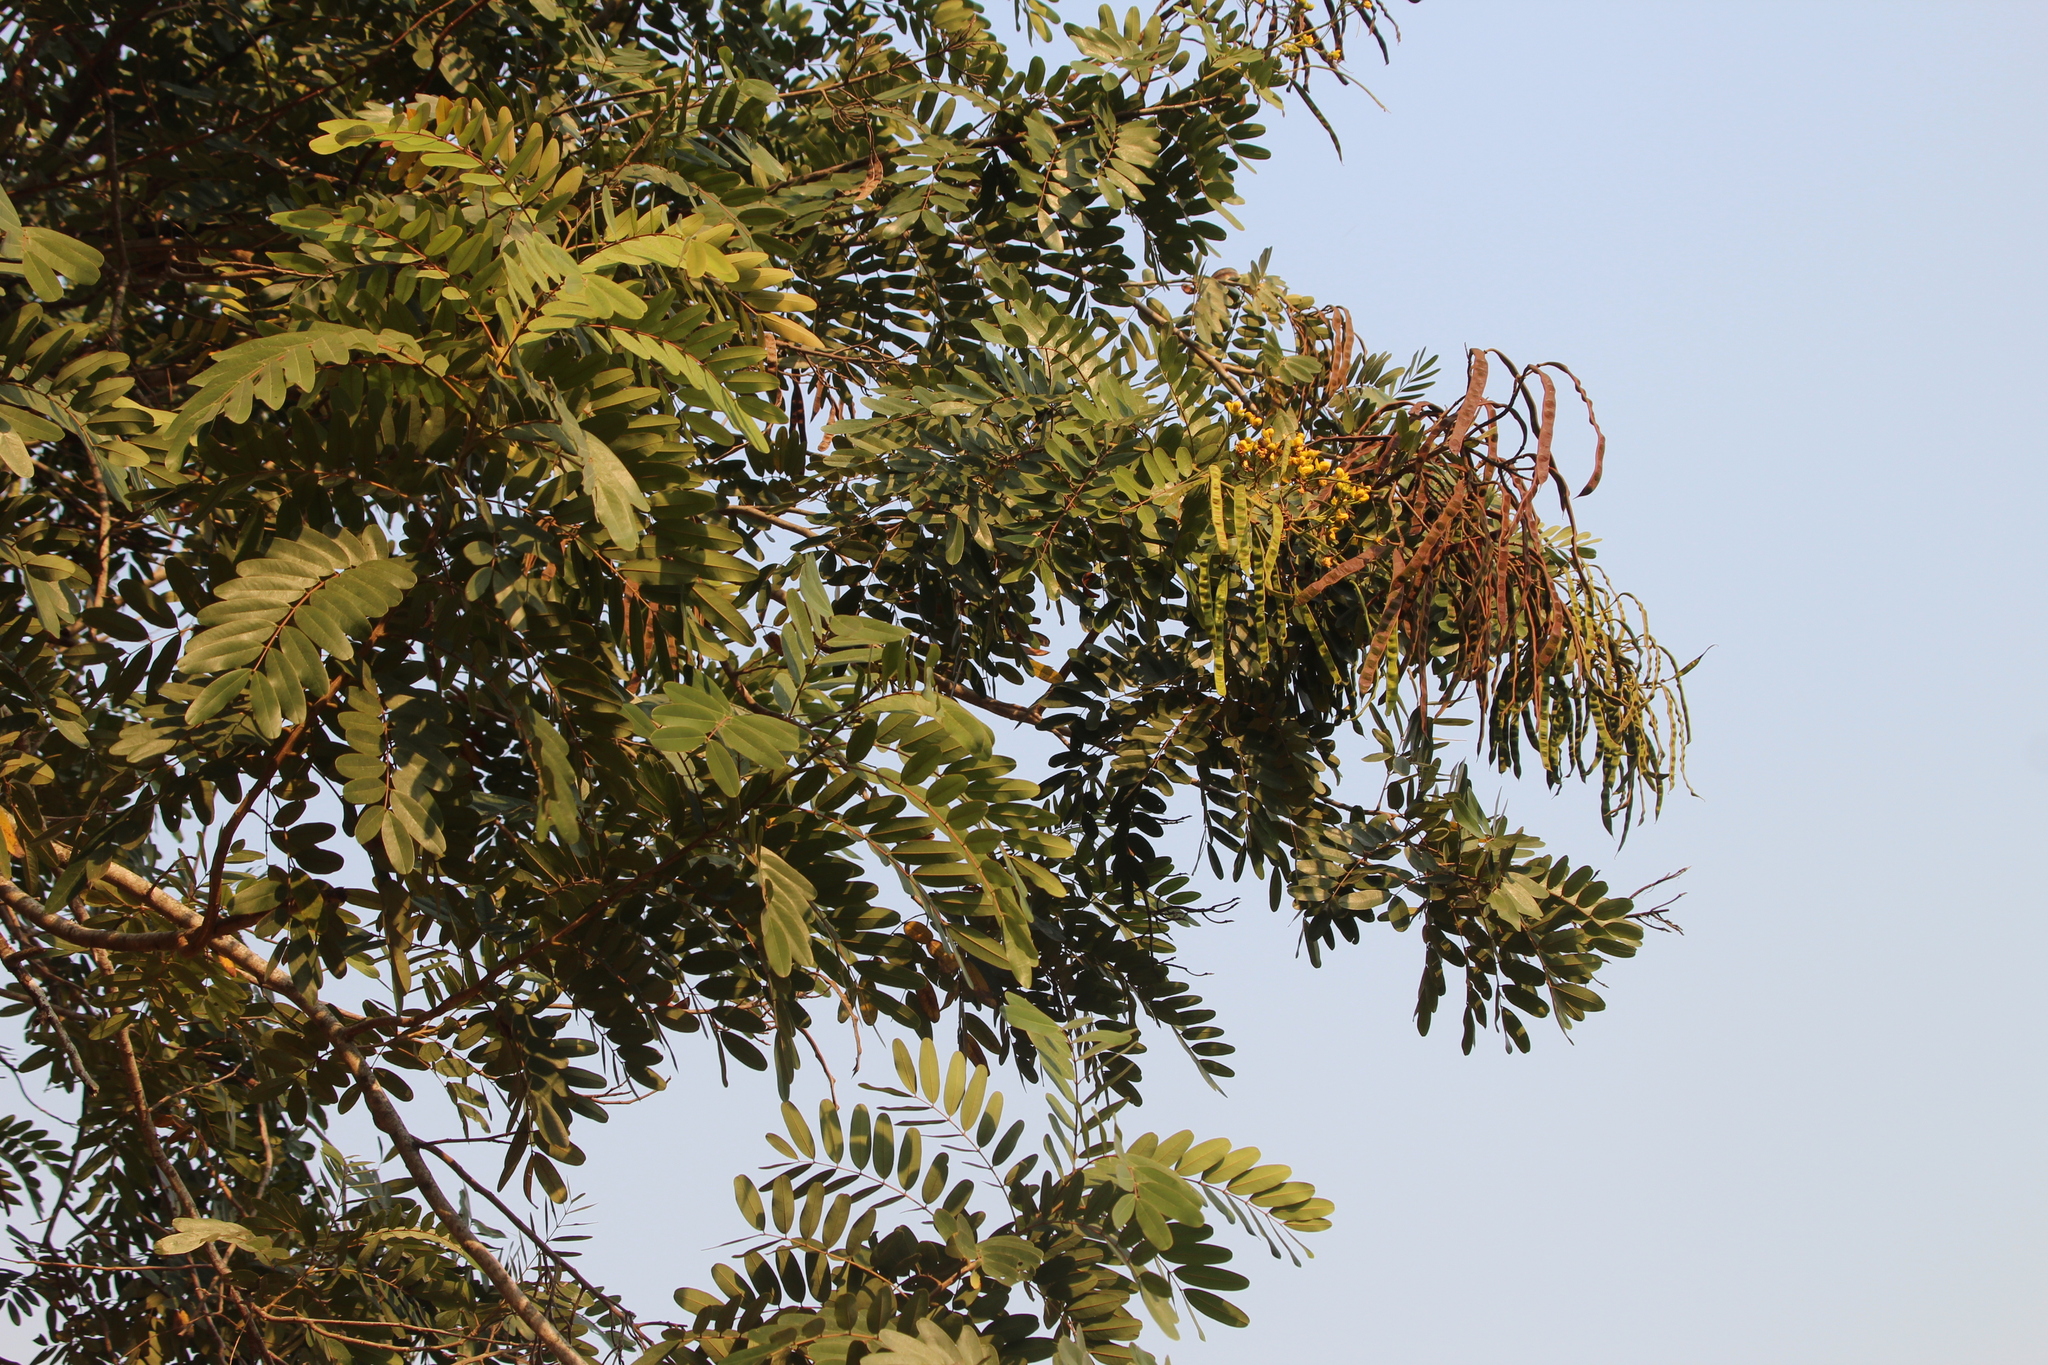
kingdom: Plantae
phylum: Tracheophyta
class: Magnoliopsida
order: Fabales
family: Fabaceae
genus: Senna
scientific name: Senna siamea
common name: Siamese cassia
